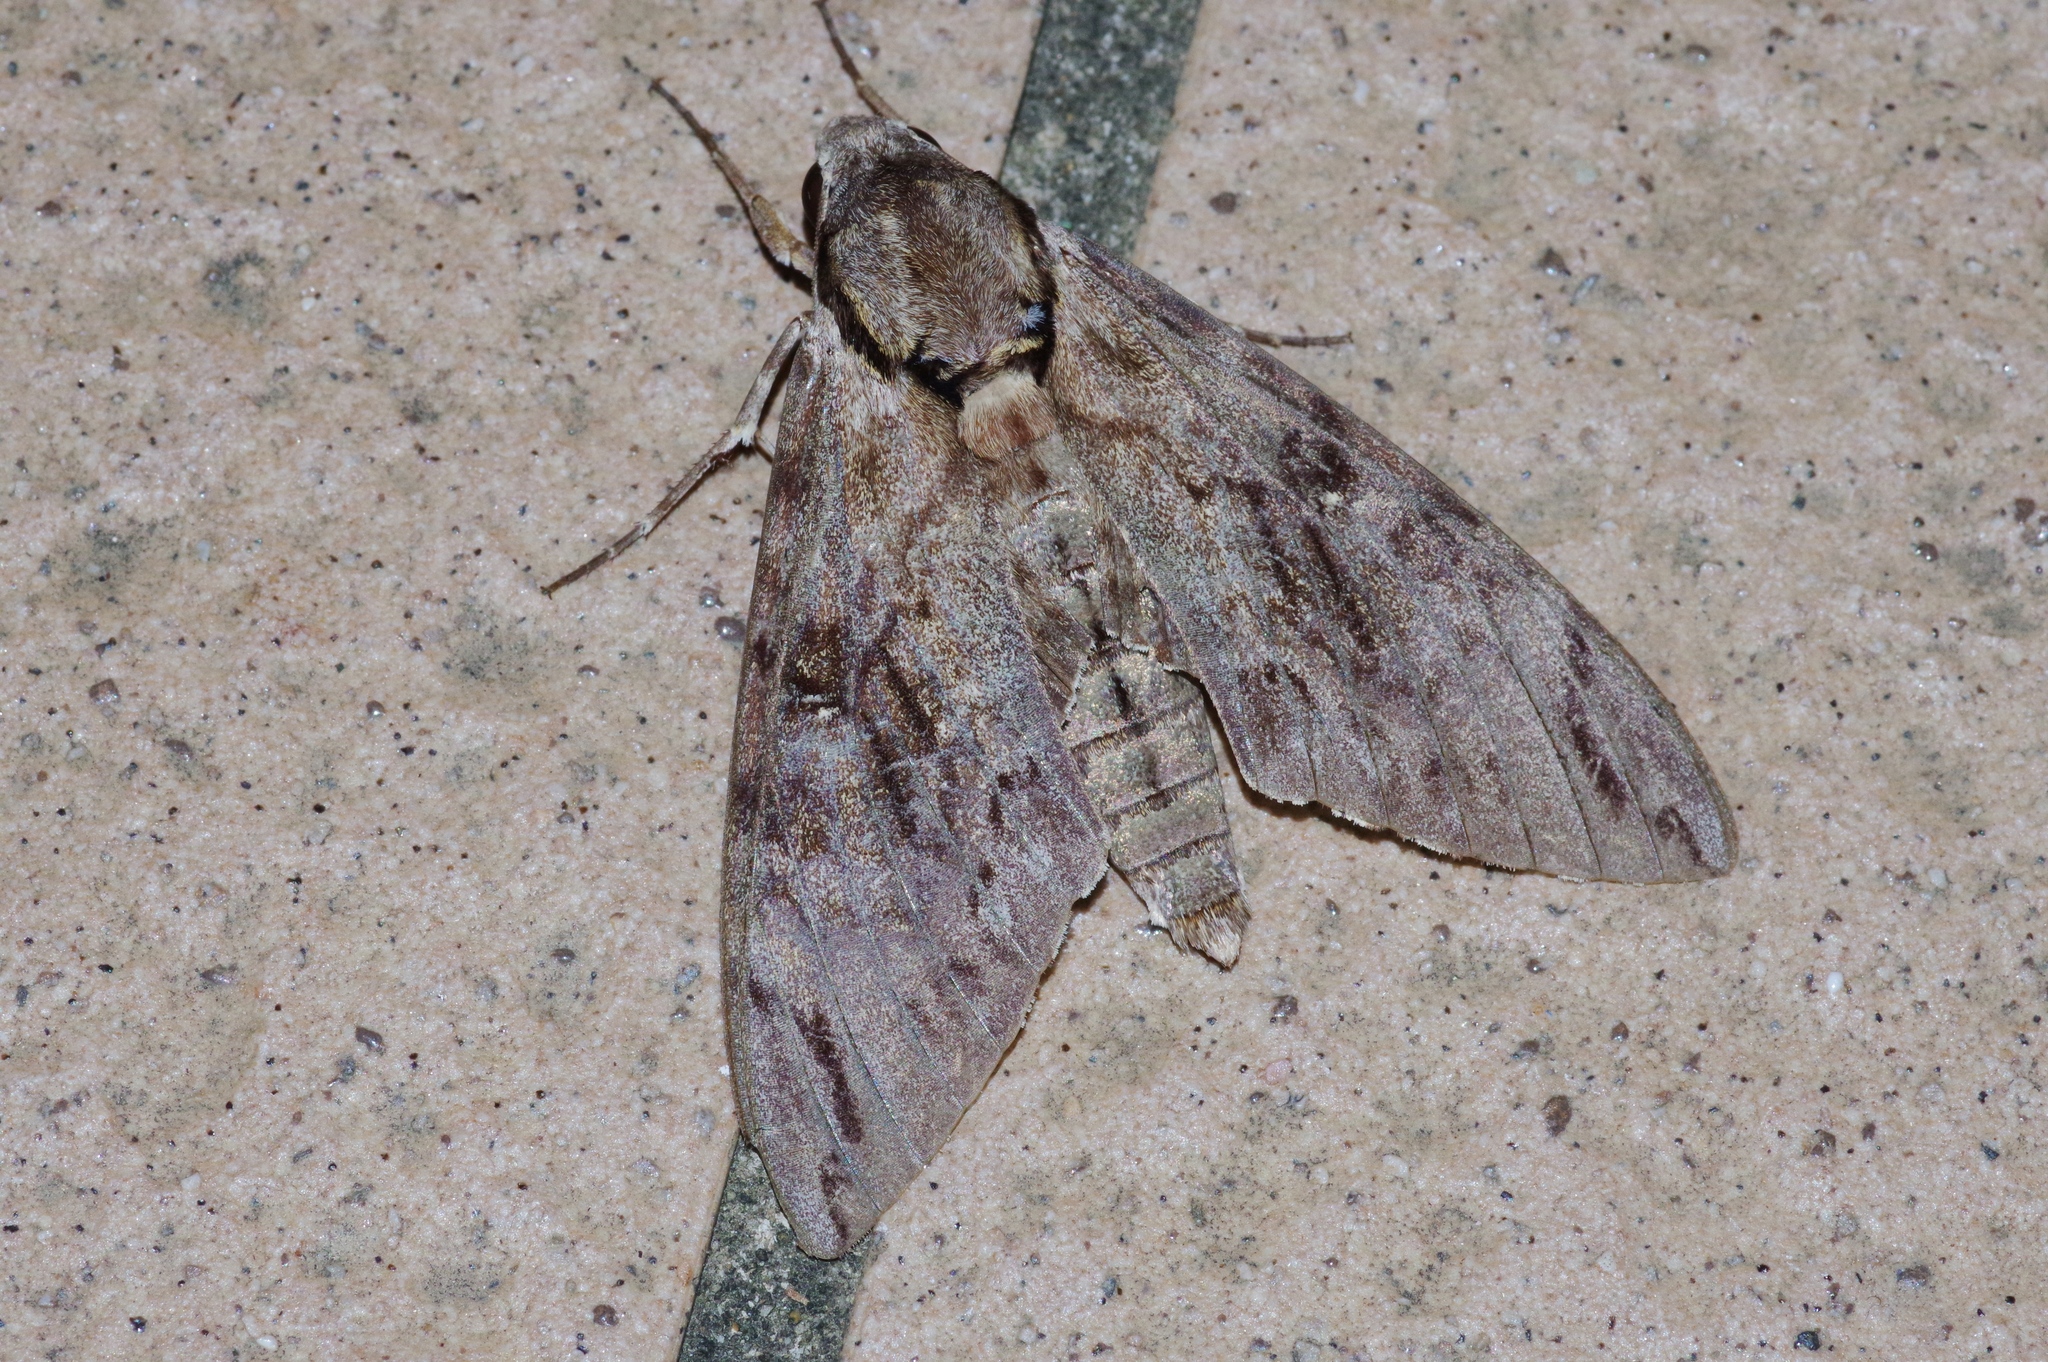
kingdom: Animalia
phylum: Arthropoda
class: Insecta
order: Lepidoptera
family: Sphingidae
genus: Psilogramma
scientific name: Psilogramma increta
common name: Gray hawk moth
